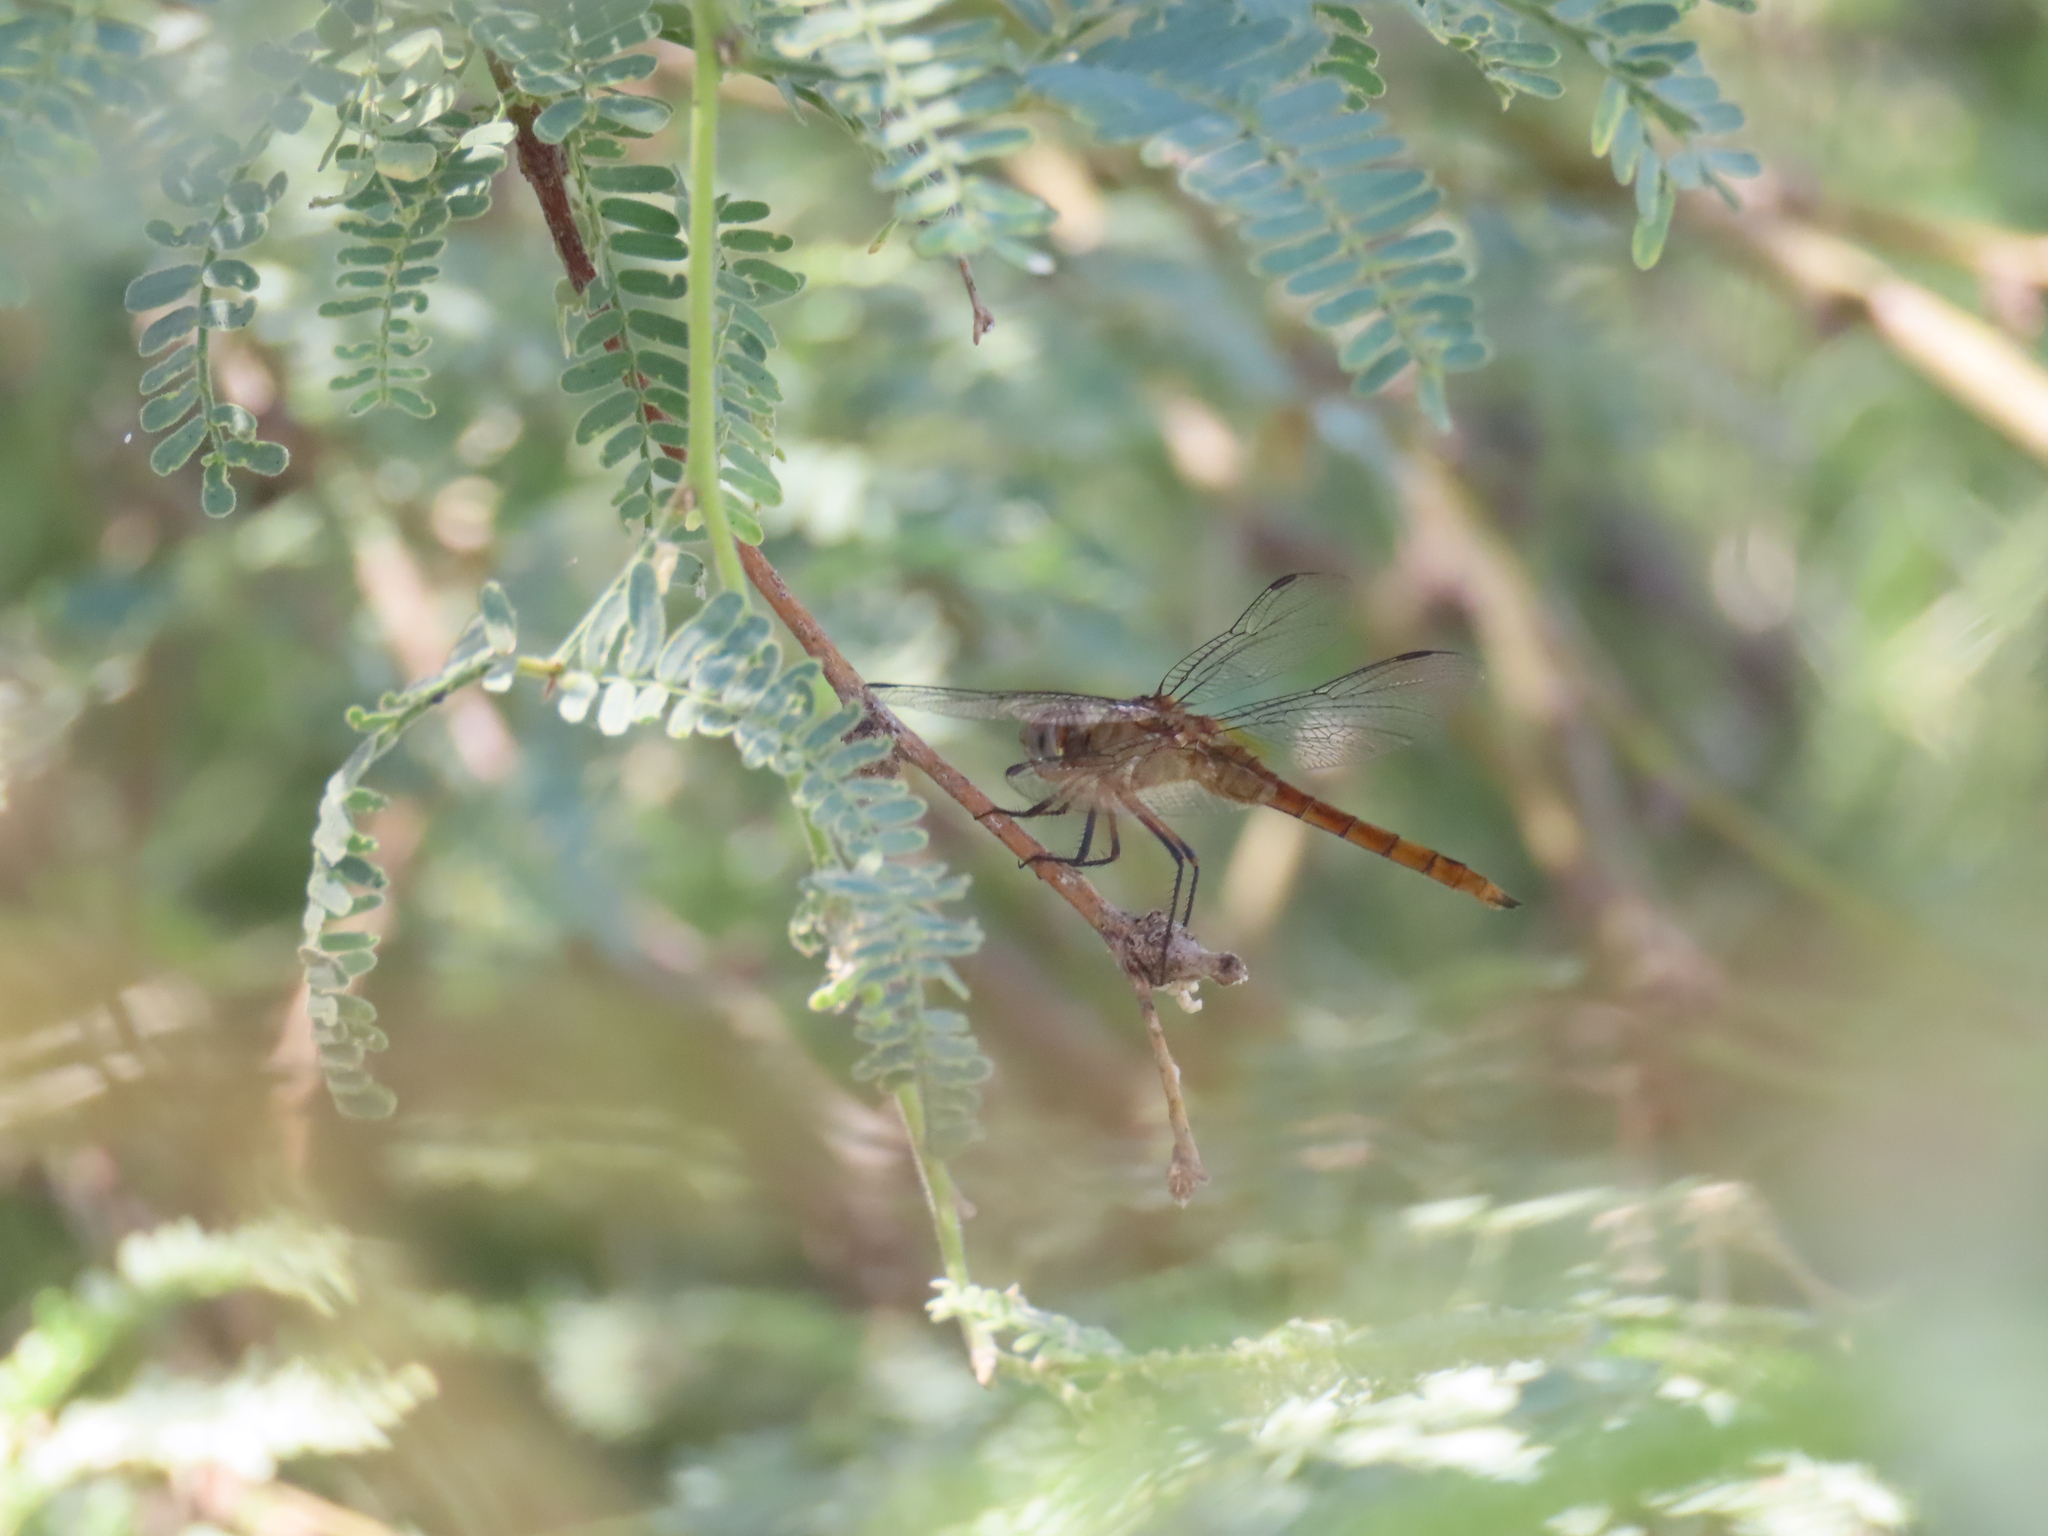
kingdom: Animalia
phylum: Arthropoda
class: Insecta
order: Odonata
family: Libellulidae
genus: Brachymesia
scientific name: Brachymesia furcata
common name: Red-taled pennant
